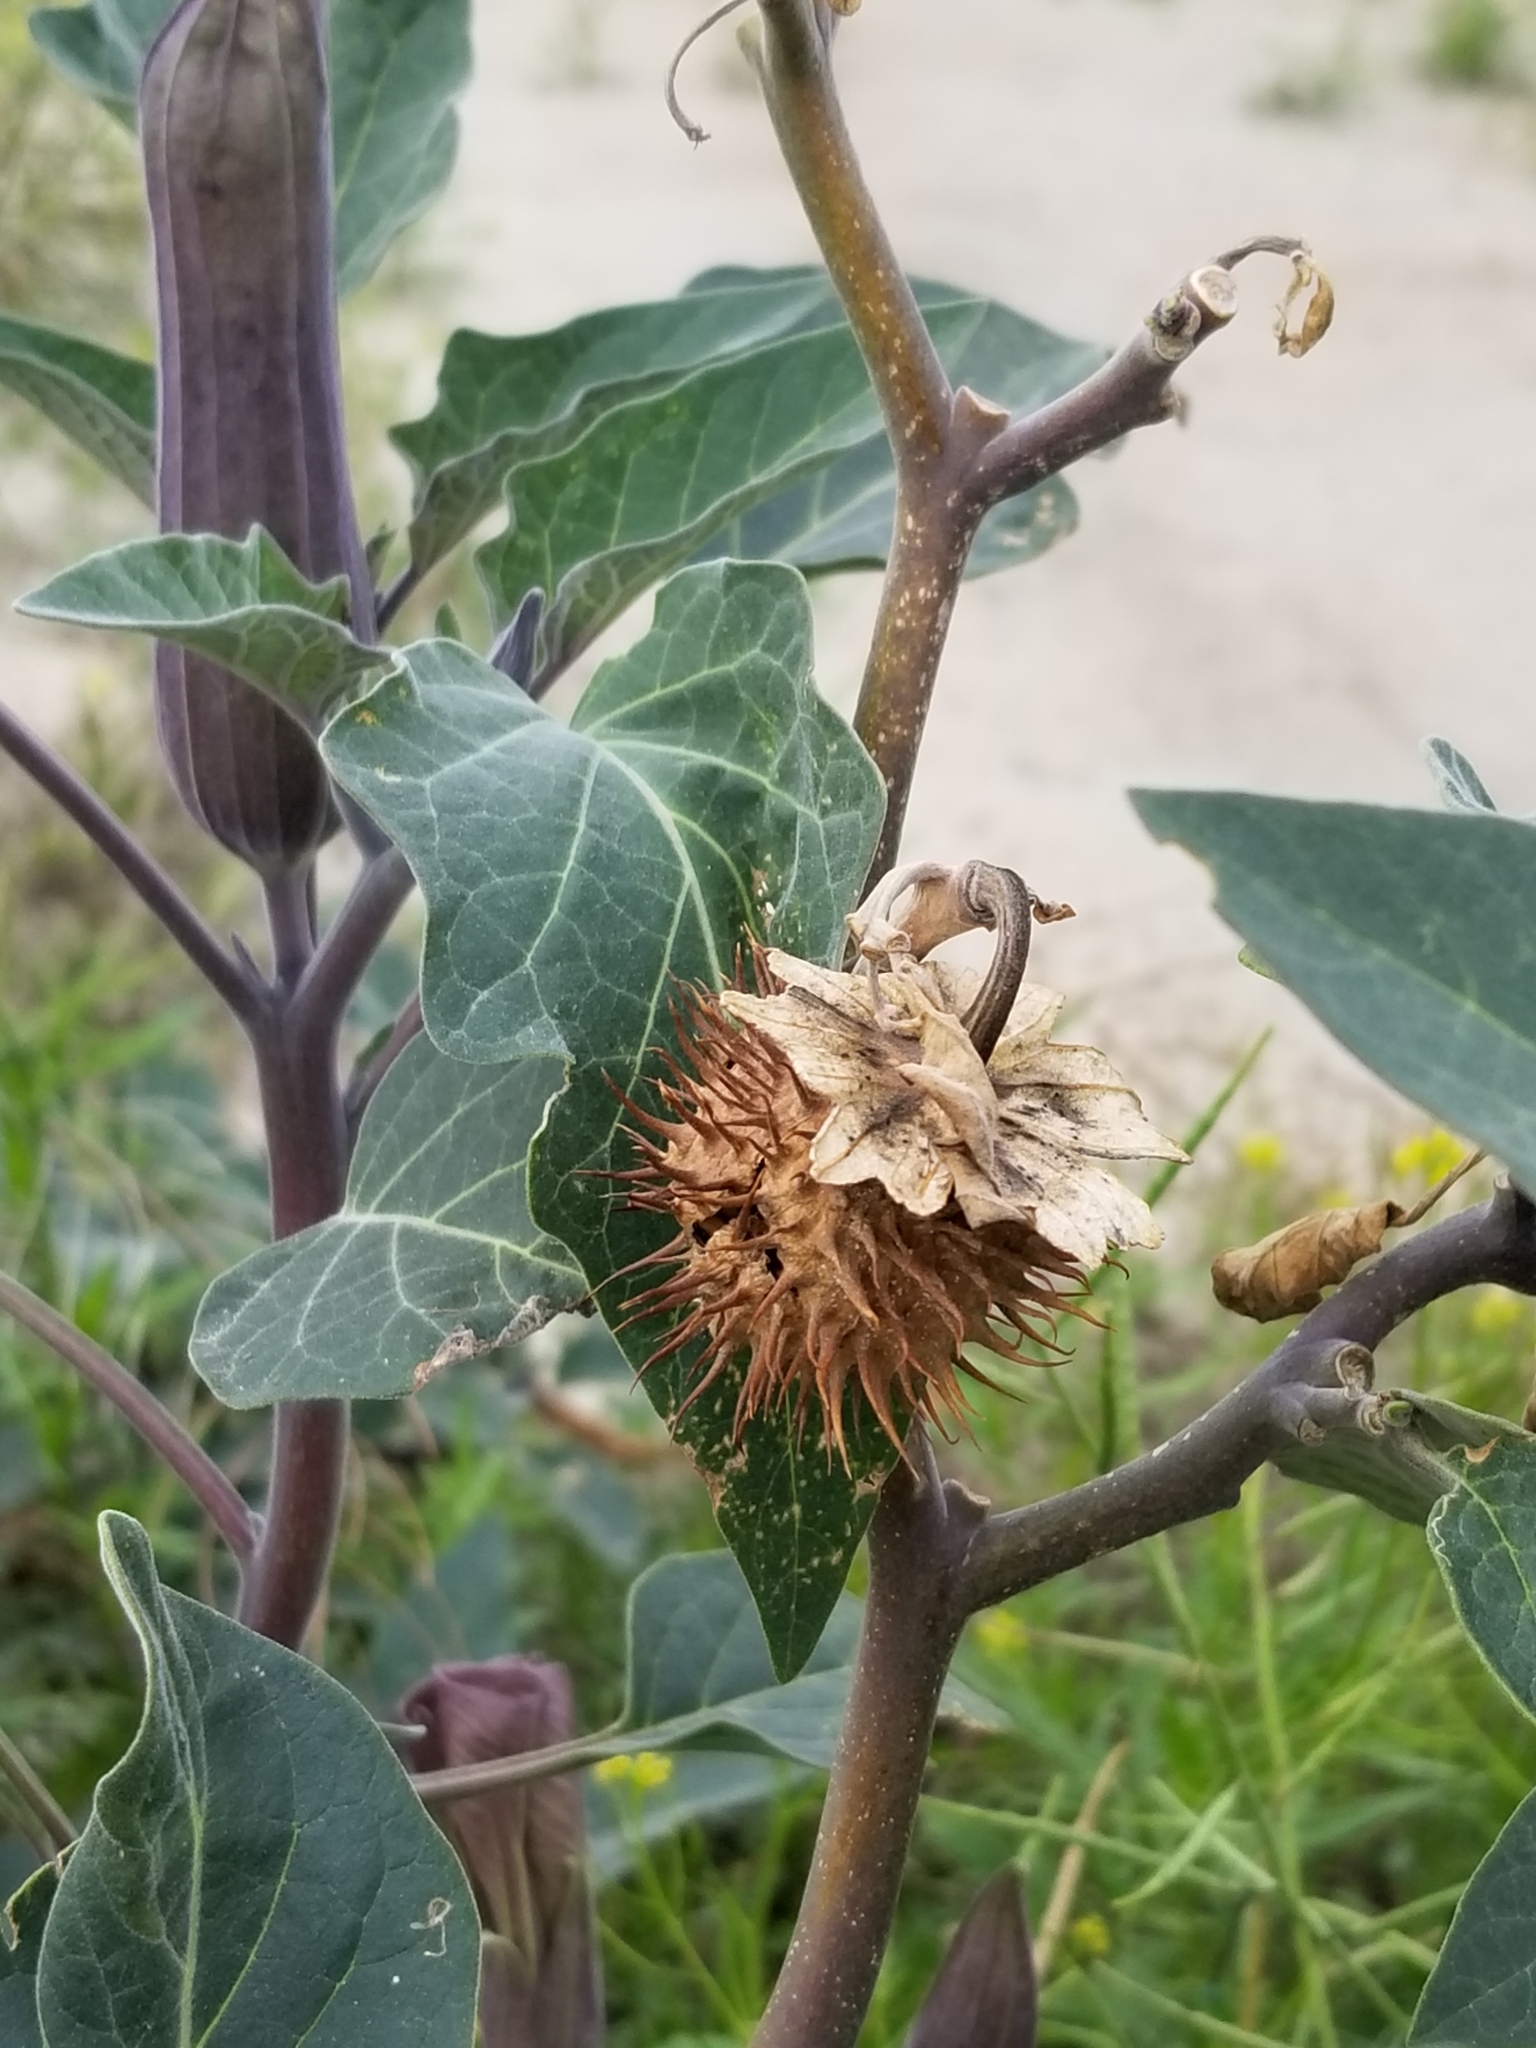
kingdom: Plantae
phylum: Tracheophyta
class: Magnoliopsida
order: Solanales
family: Solanaceae
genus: Datura
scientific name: Datura wrightii
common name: Sacred thorn-apple
